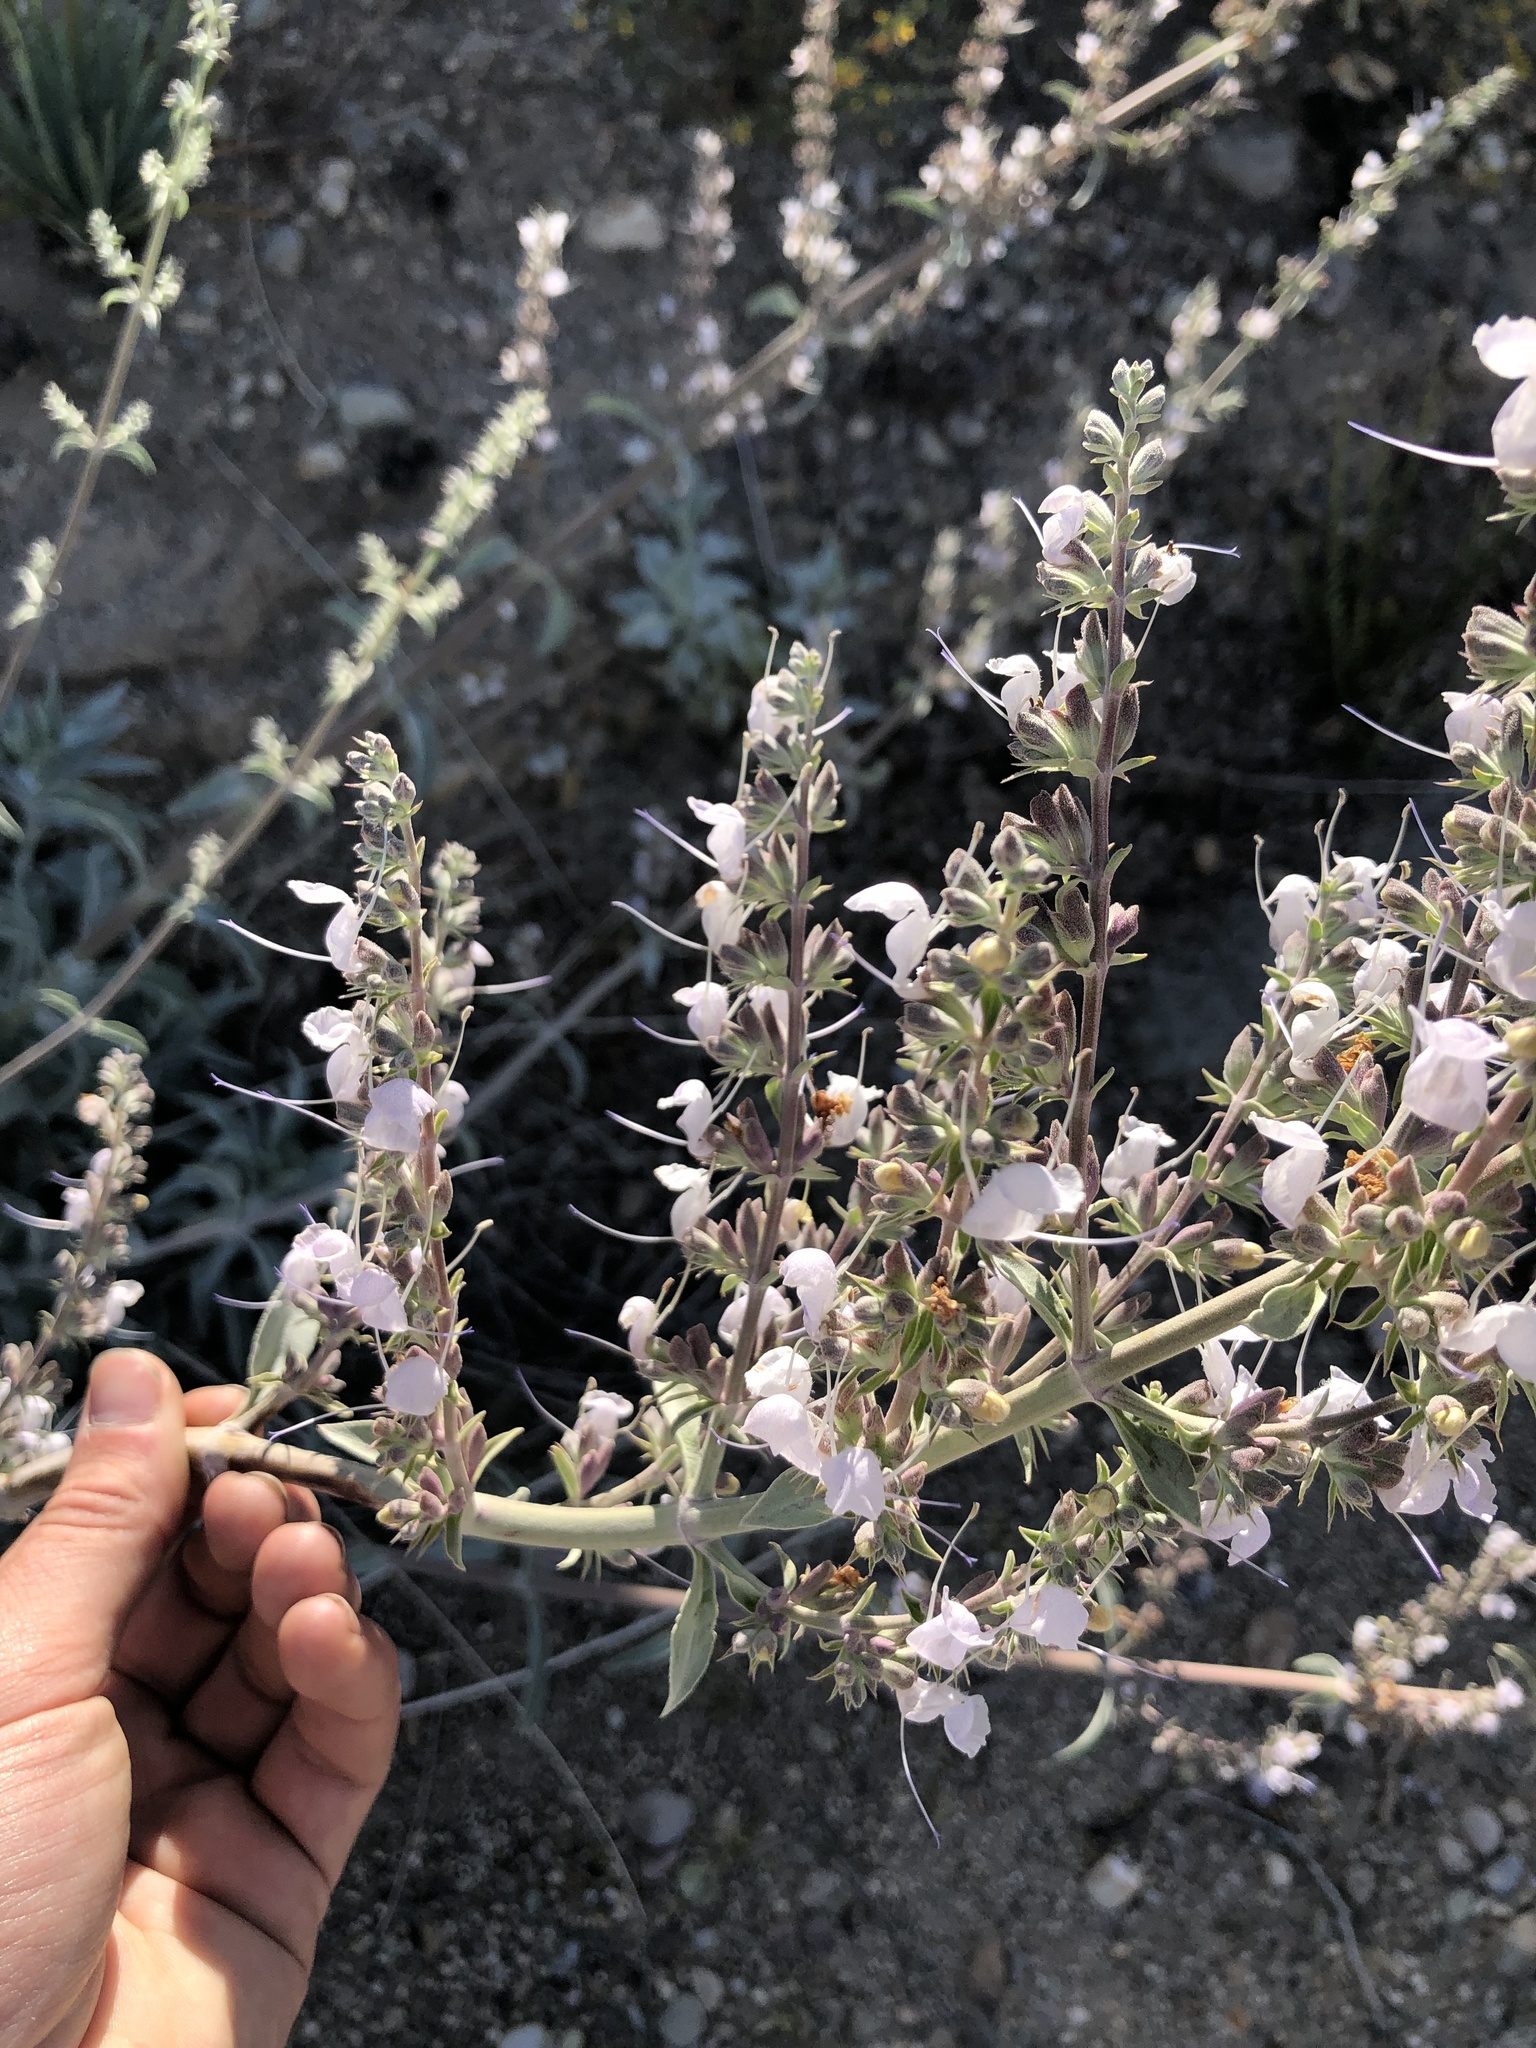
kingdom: Plantae
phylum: Tracheophyta
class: Magnoliopsida
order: Lamiales
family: Lamiaceae
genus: Salvia
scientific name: Salvia apiana
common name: White sage
